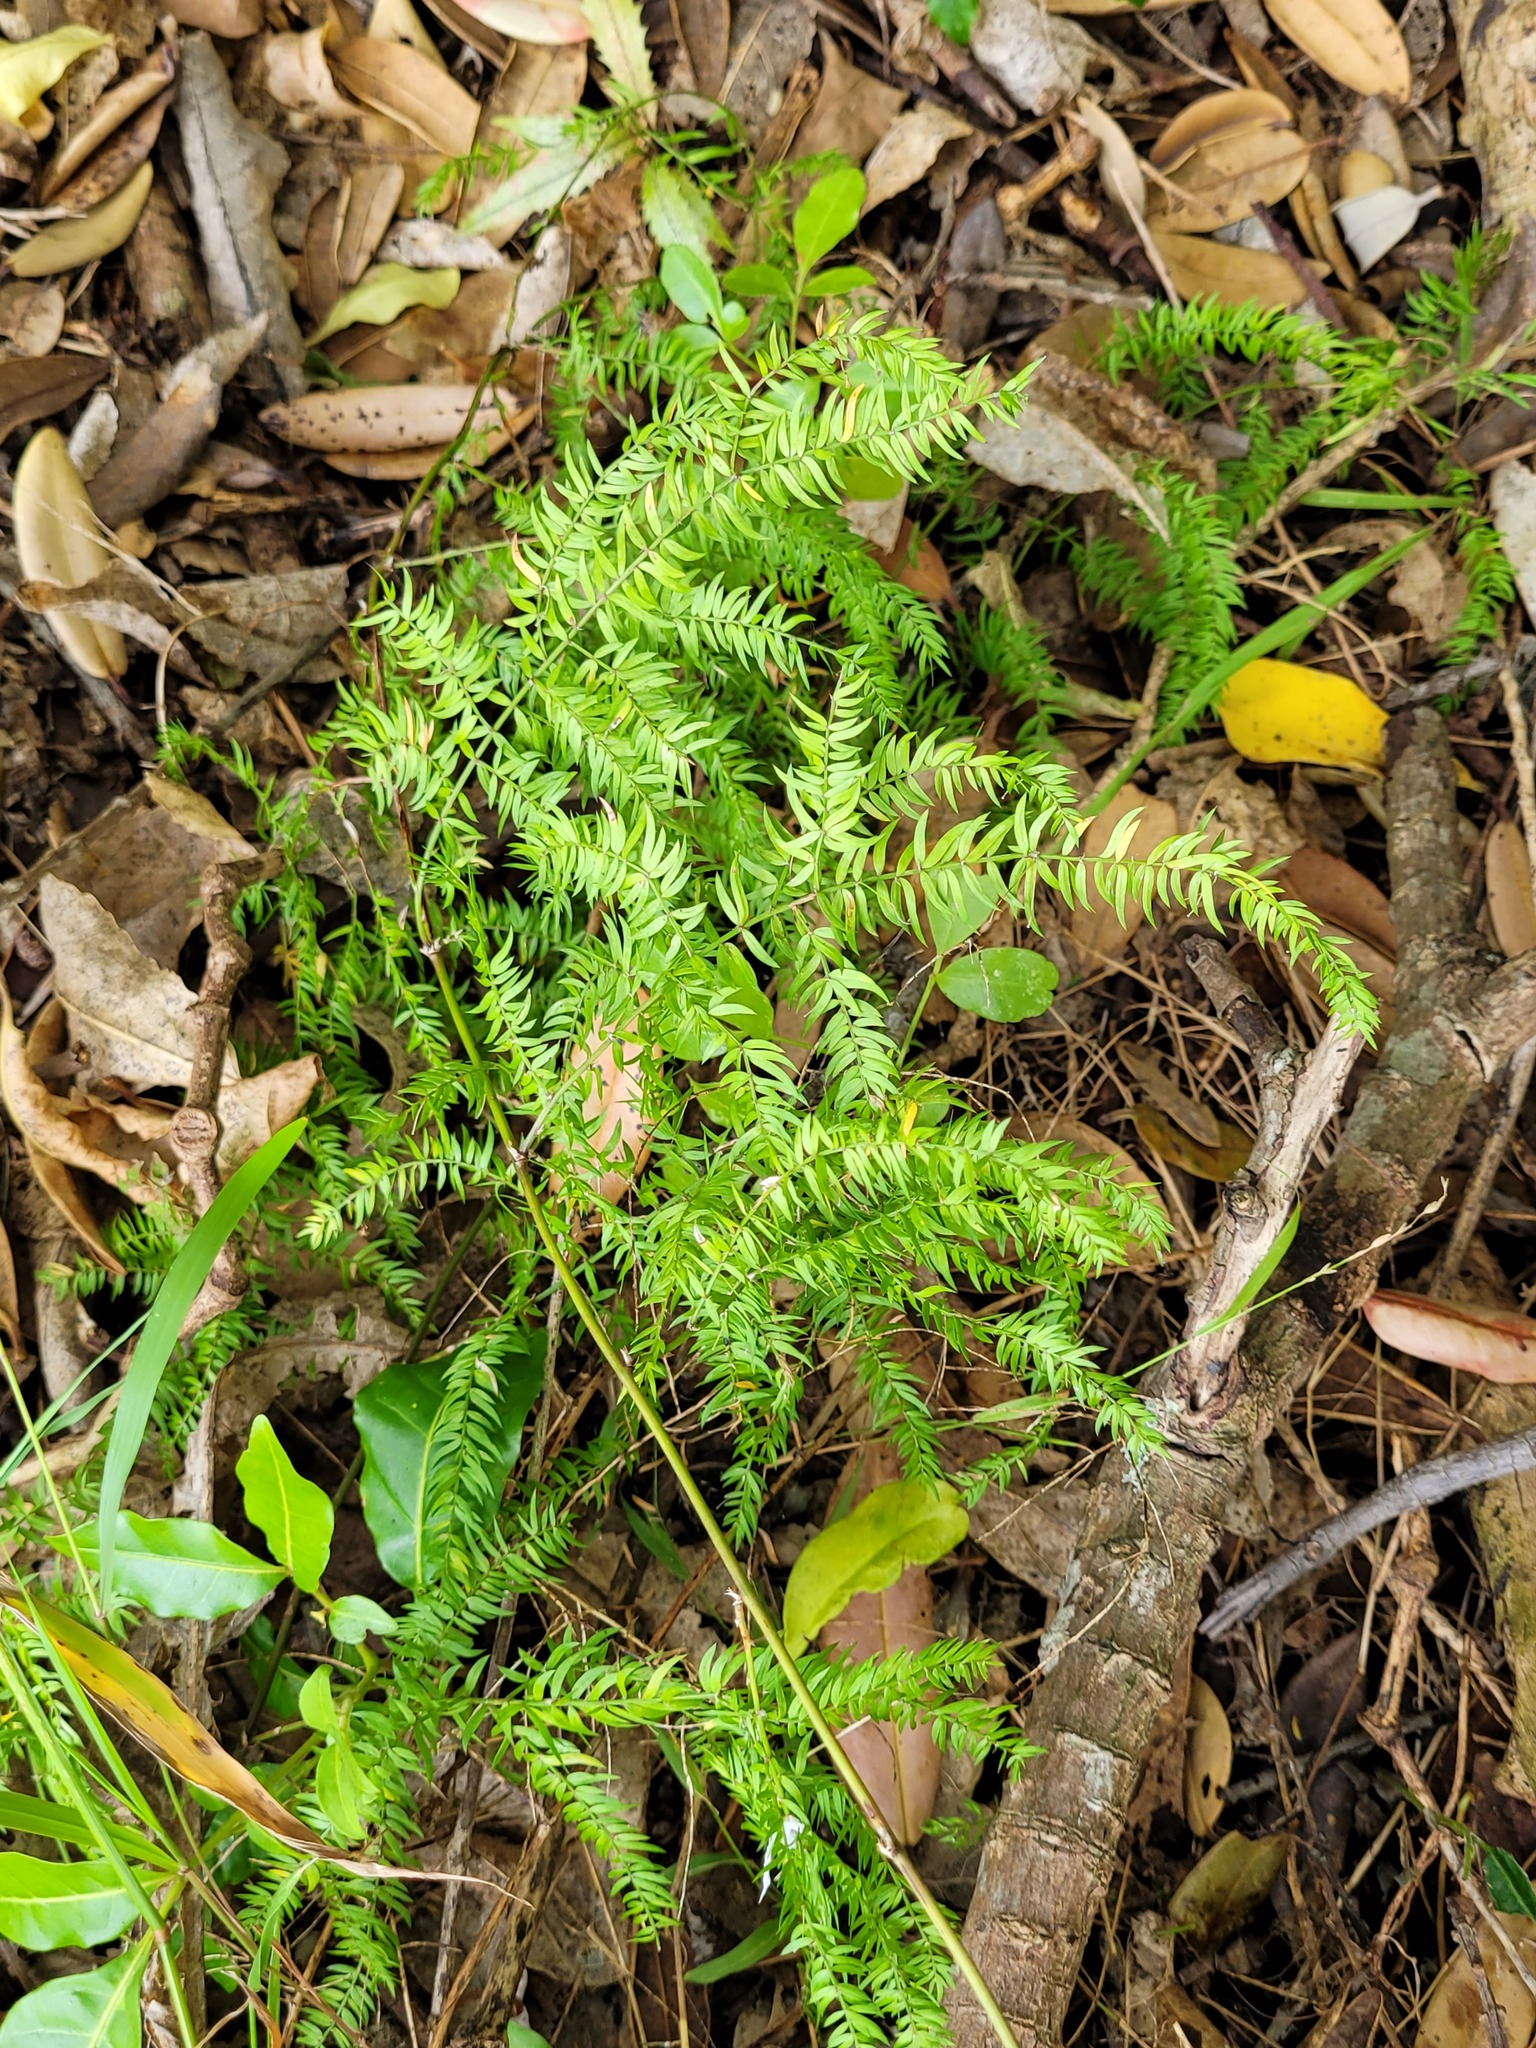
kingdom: Plantae
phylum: Tracheophyta
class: Liliopsida
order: Asparagales
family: Asparagaceae
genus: Asparagus
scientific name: Asparagus scandens
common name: Asparagus-fern
